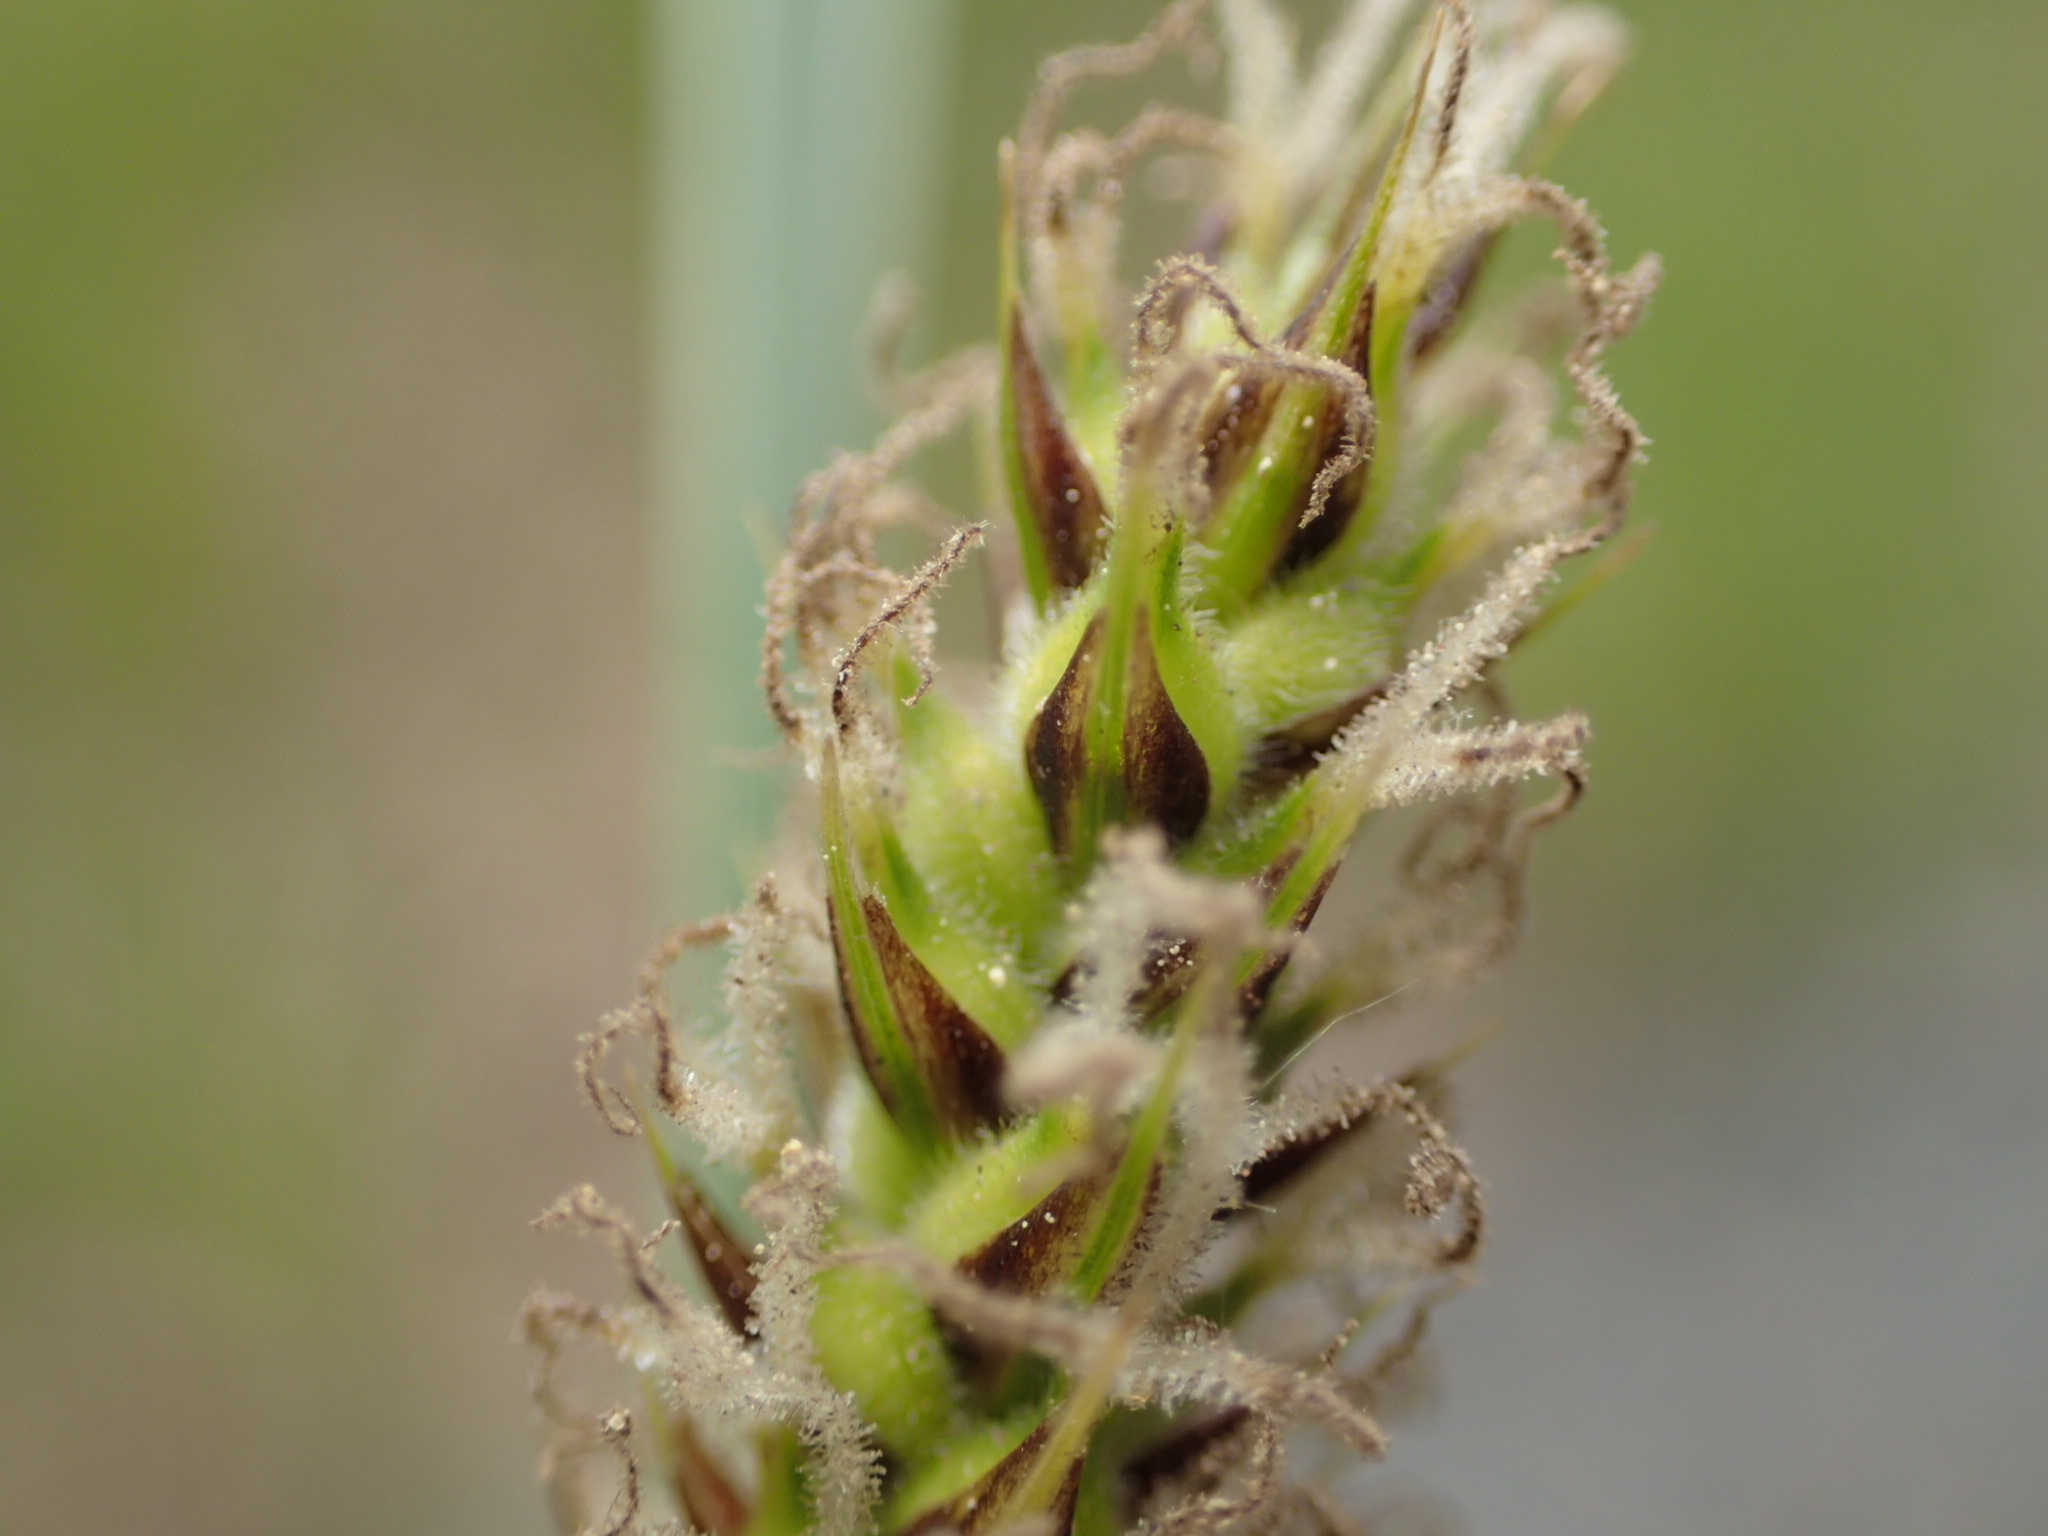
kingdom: Plantae
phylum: Tracheophyta
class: Liliopsida
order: Poales
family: Cyperaceae
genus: Carex
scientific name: Carex pellita
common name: Woolly sedge
